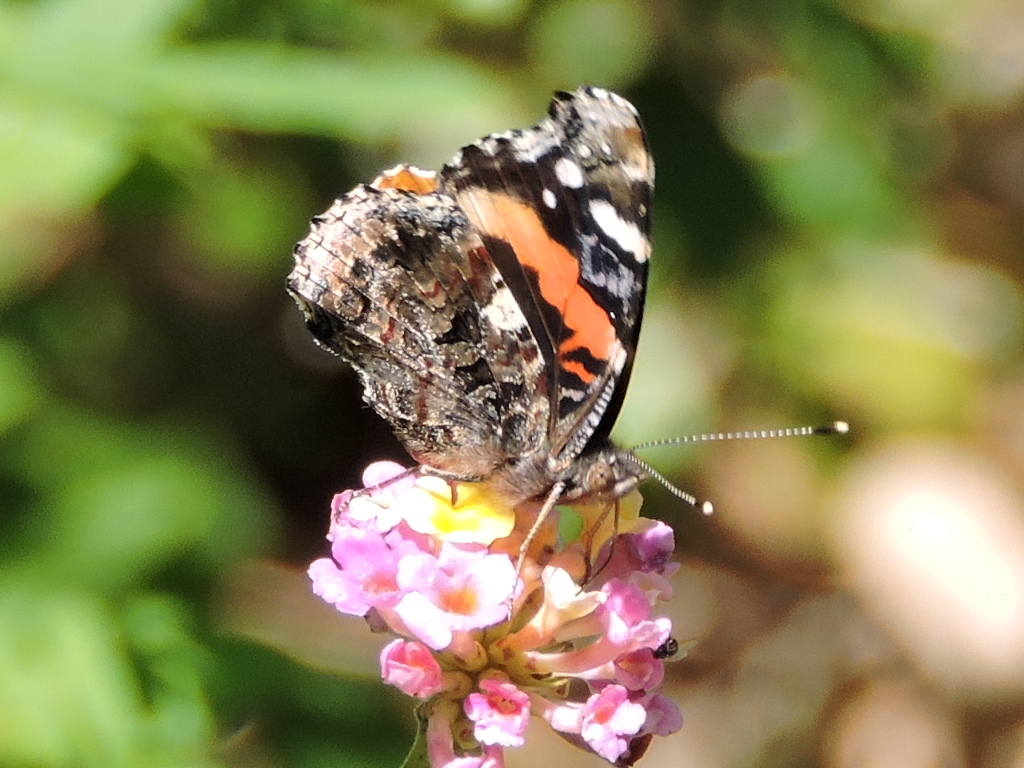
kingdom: Animalia
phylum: Arthropoda
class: Insecta
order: Lepidoptera
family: Nymphalidae
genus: Vanessa
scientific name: Vanessa atalanta
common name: Red admiral
